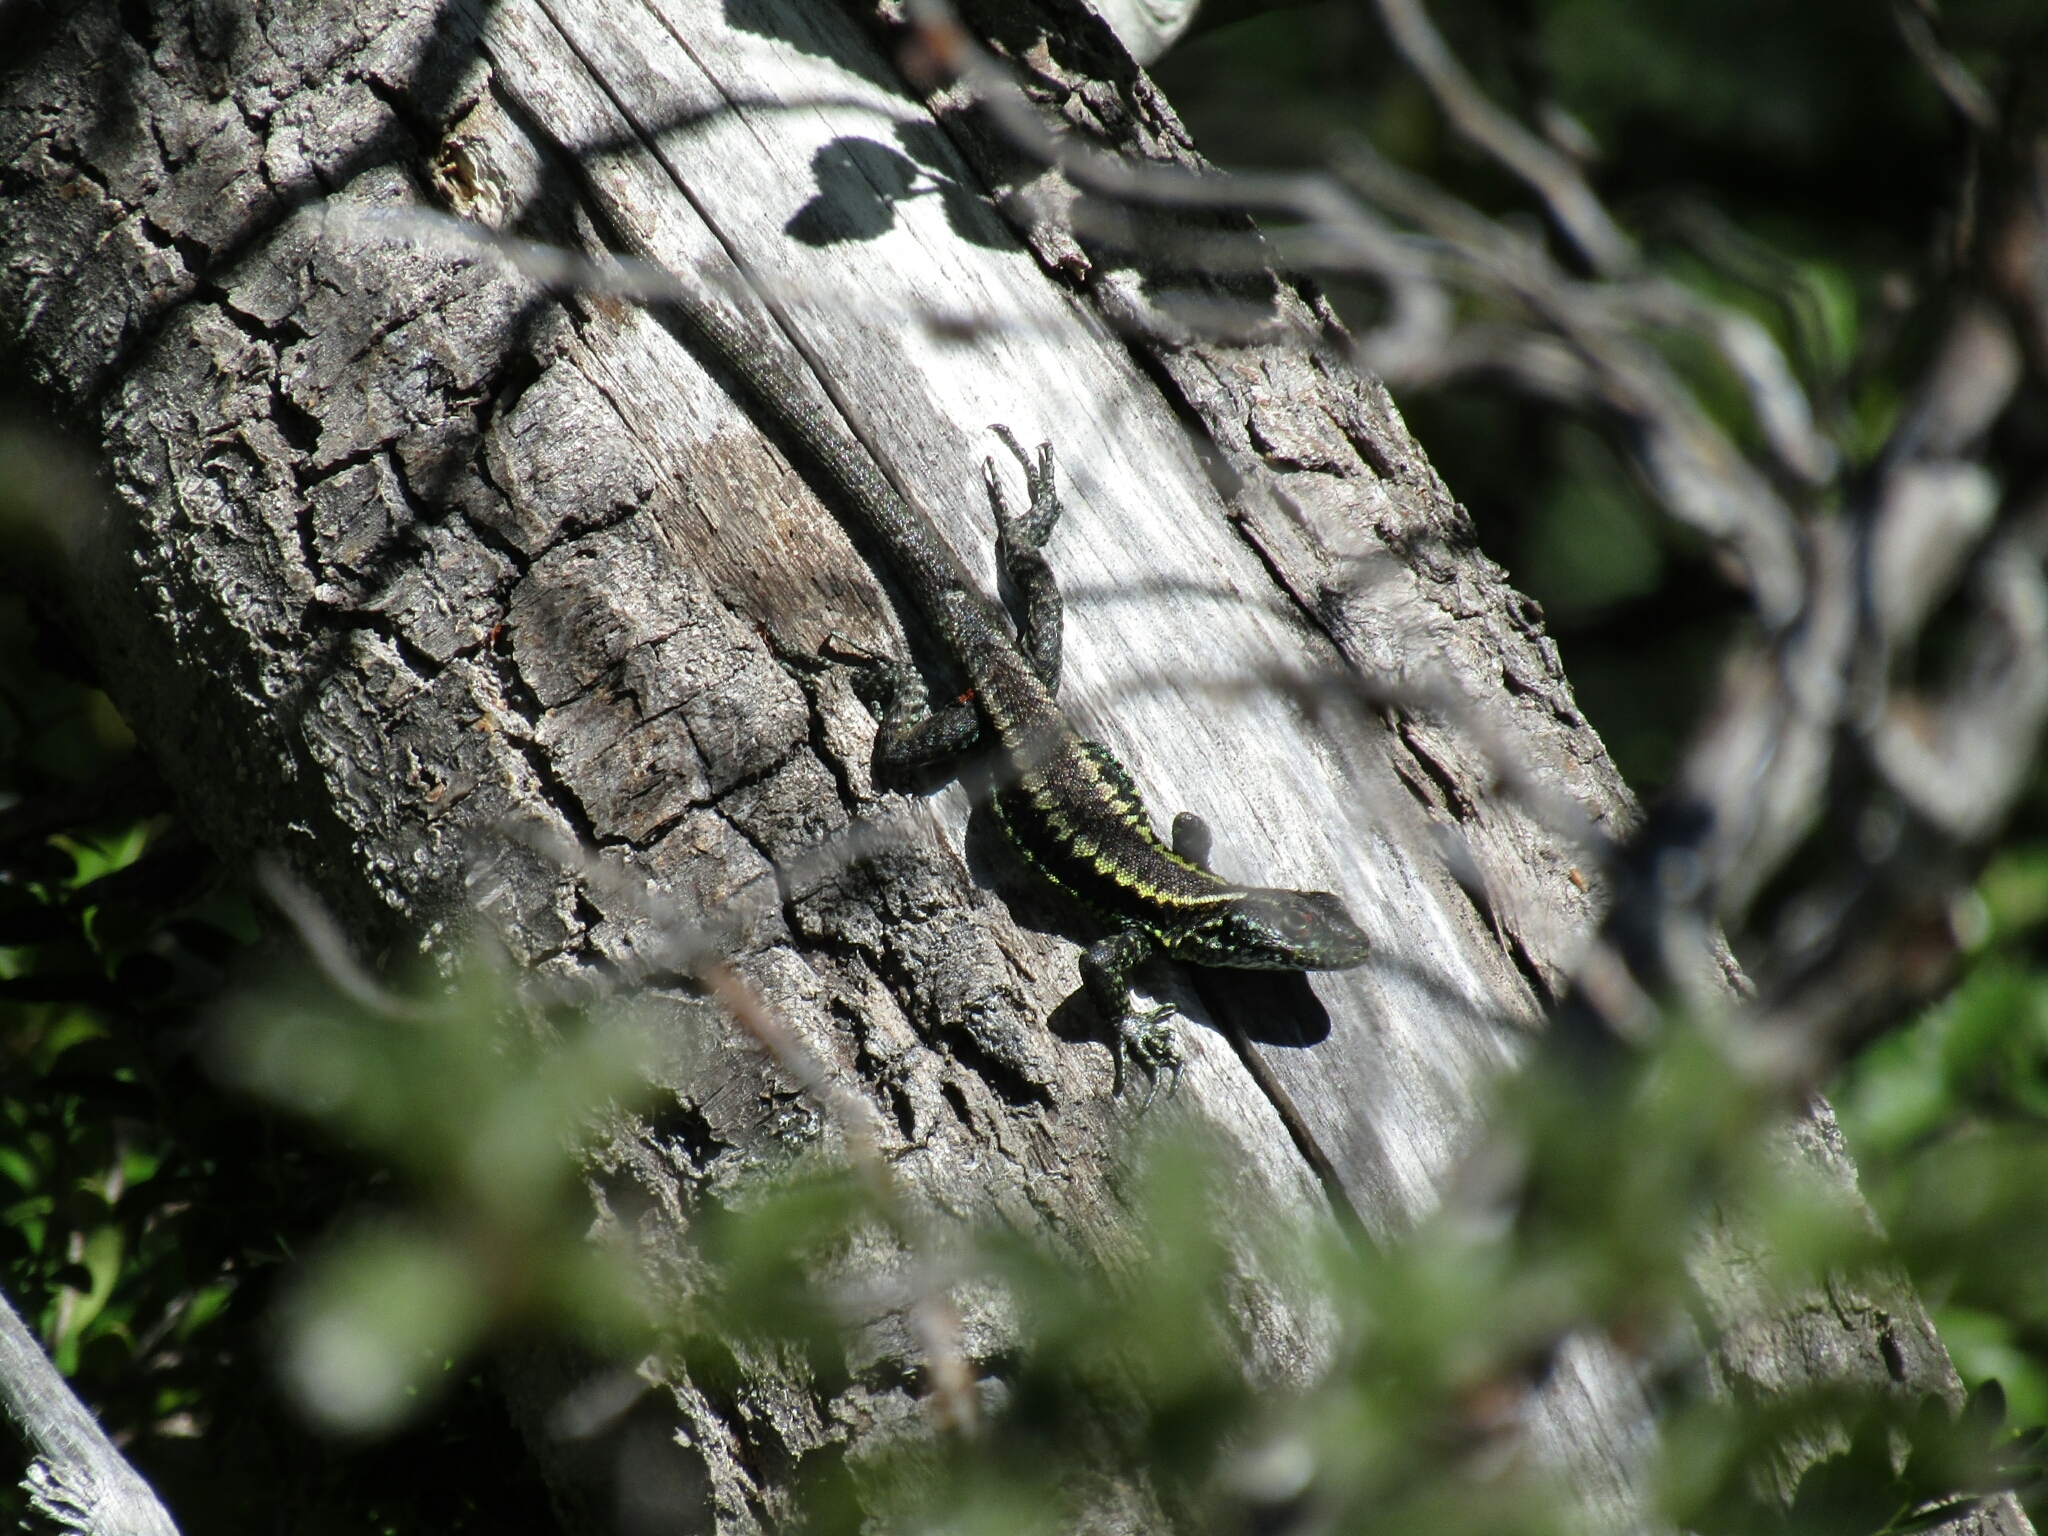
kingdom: Animalia
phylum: Chordata
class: Squamata
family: Liolaemidae
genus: Liolaemus
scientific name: Liolaemus pictus
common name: Painted tree iguana
